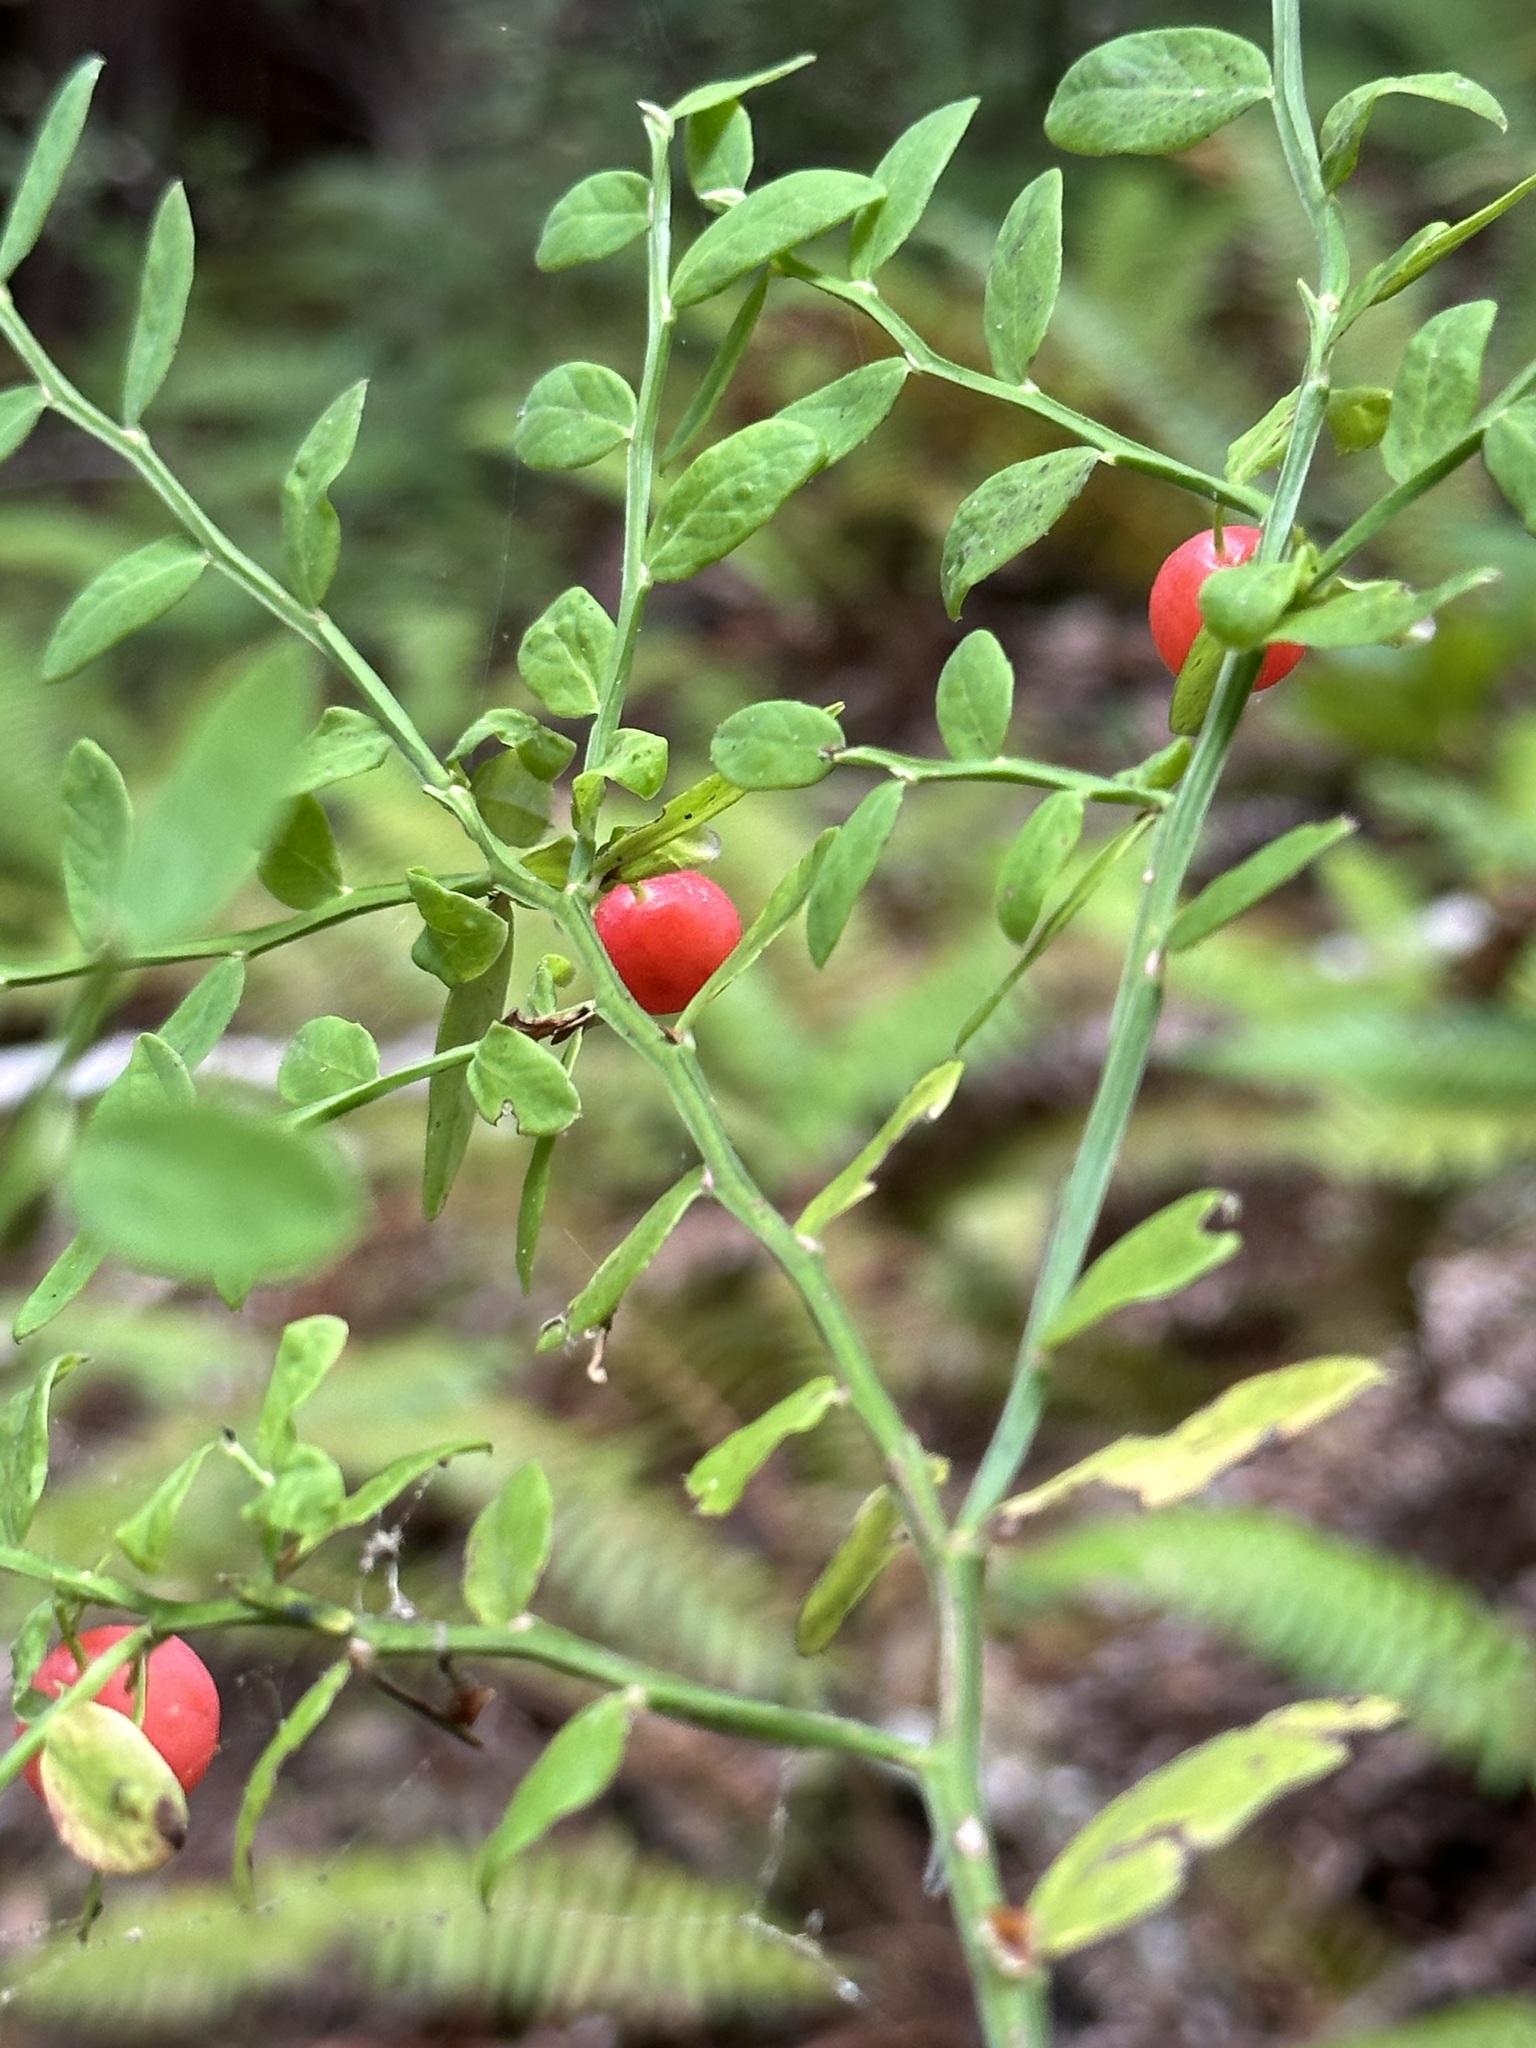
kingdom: Plantae
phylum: Tracheophyta
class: Magnoliopsida
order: Ericales
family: Ericaceae
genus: Vaccinium
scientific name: Vaccinium parvifolium
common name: Red-huckleberry
